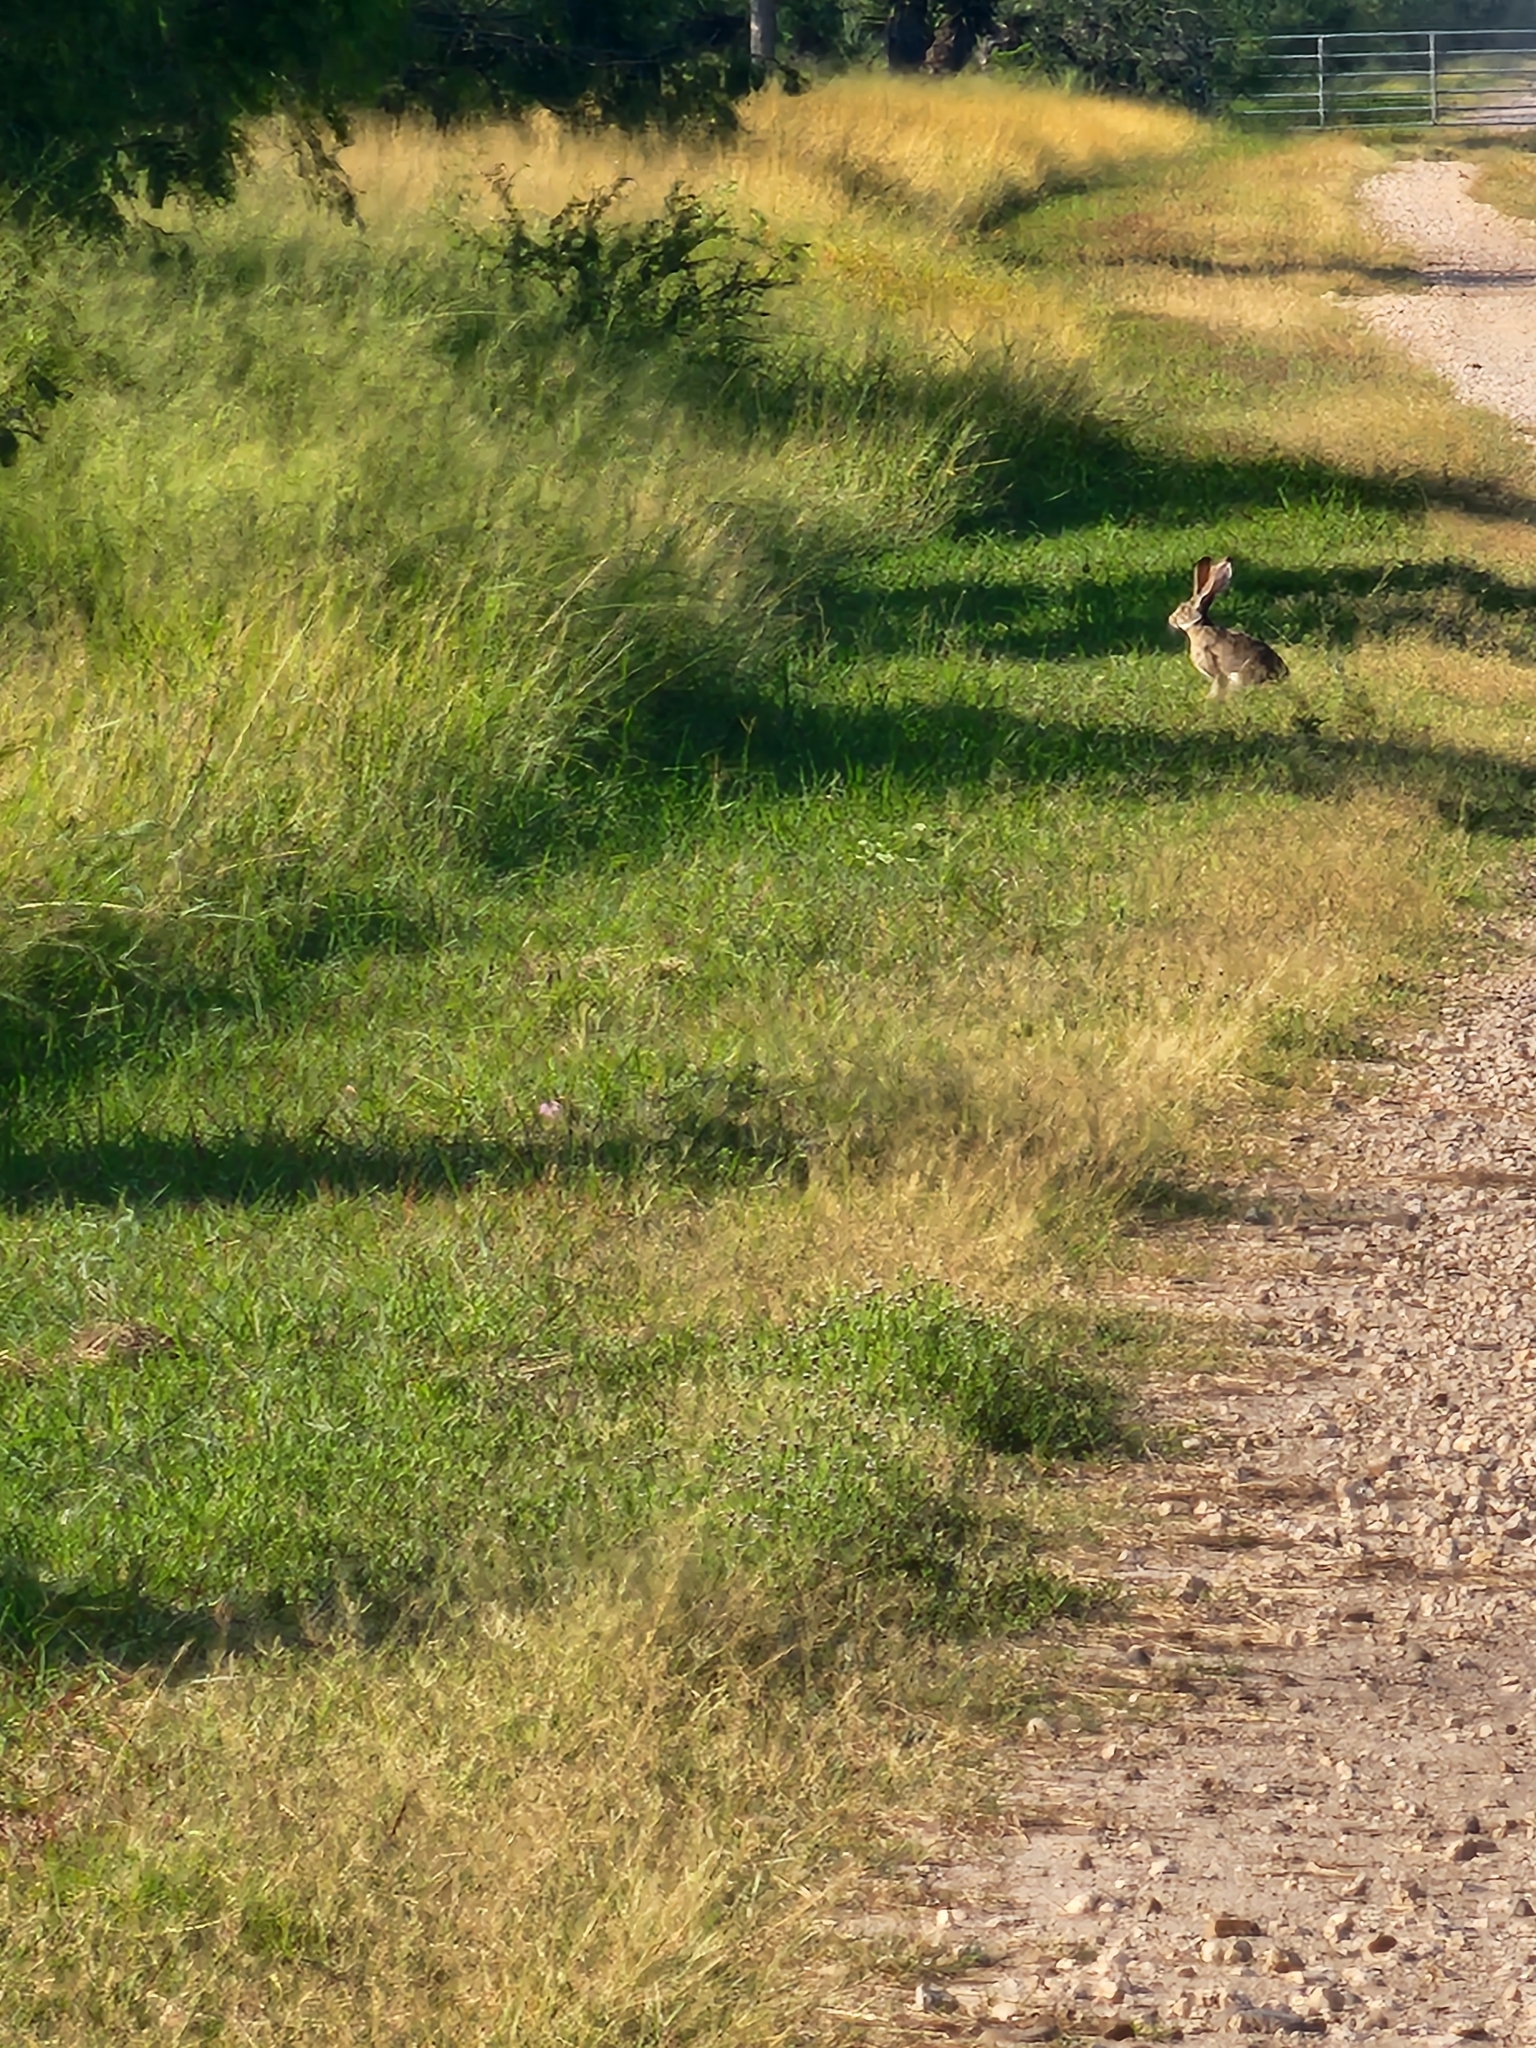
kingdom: Animalia
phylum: Chordata
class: Mammalia
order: Lagomorpha
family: Leporidae
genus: Lepus
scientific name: Lepus californicus
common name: Black-tailed jackrabbit
